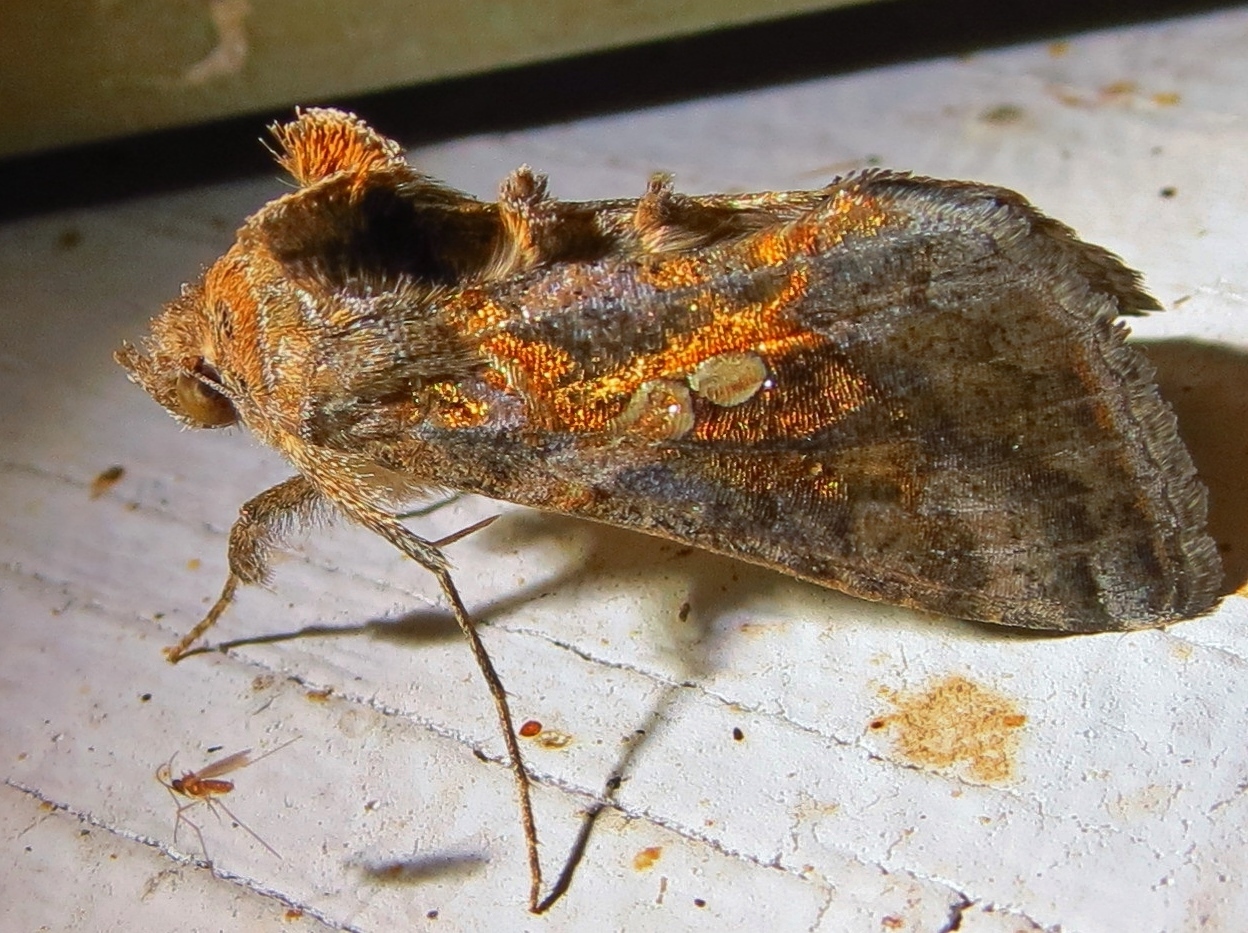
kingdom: Animalia
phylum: Arthropoda
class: Insecta
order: Lepidoptera
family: Noctuidae
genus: Chrysodeixis
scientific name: Chrysodeixis includens
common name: Cutworm moth
